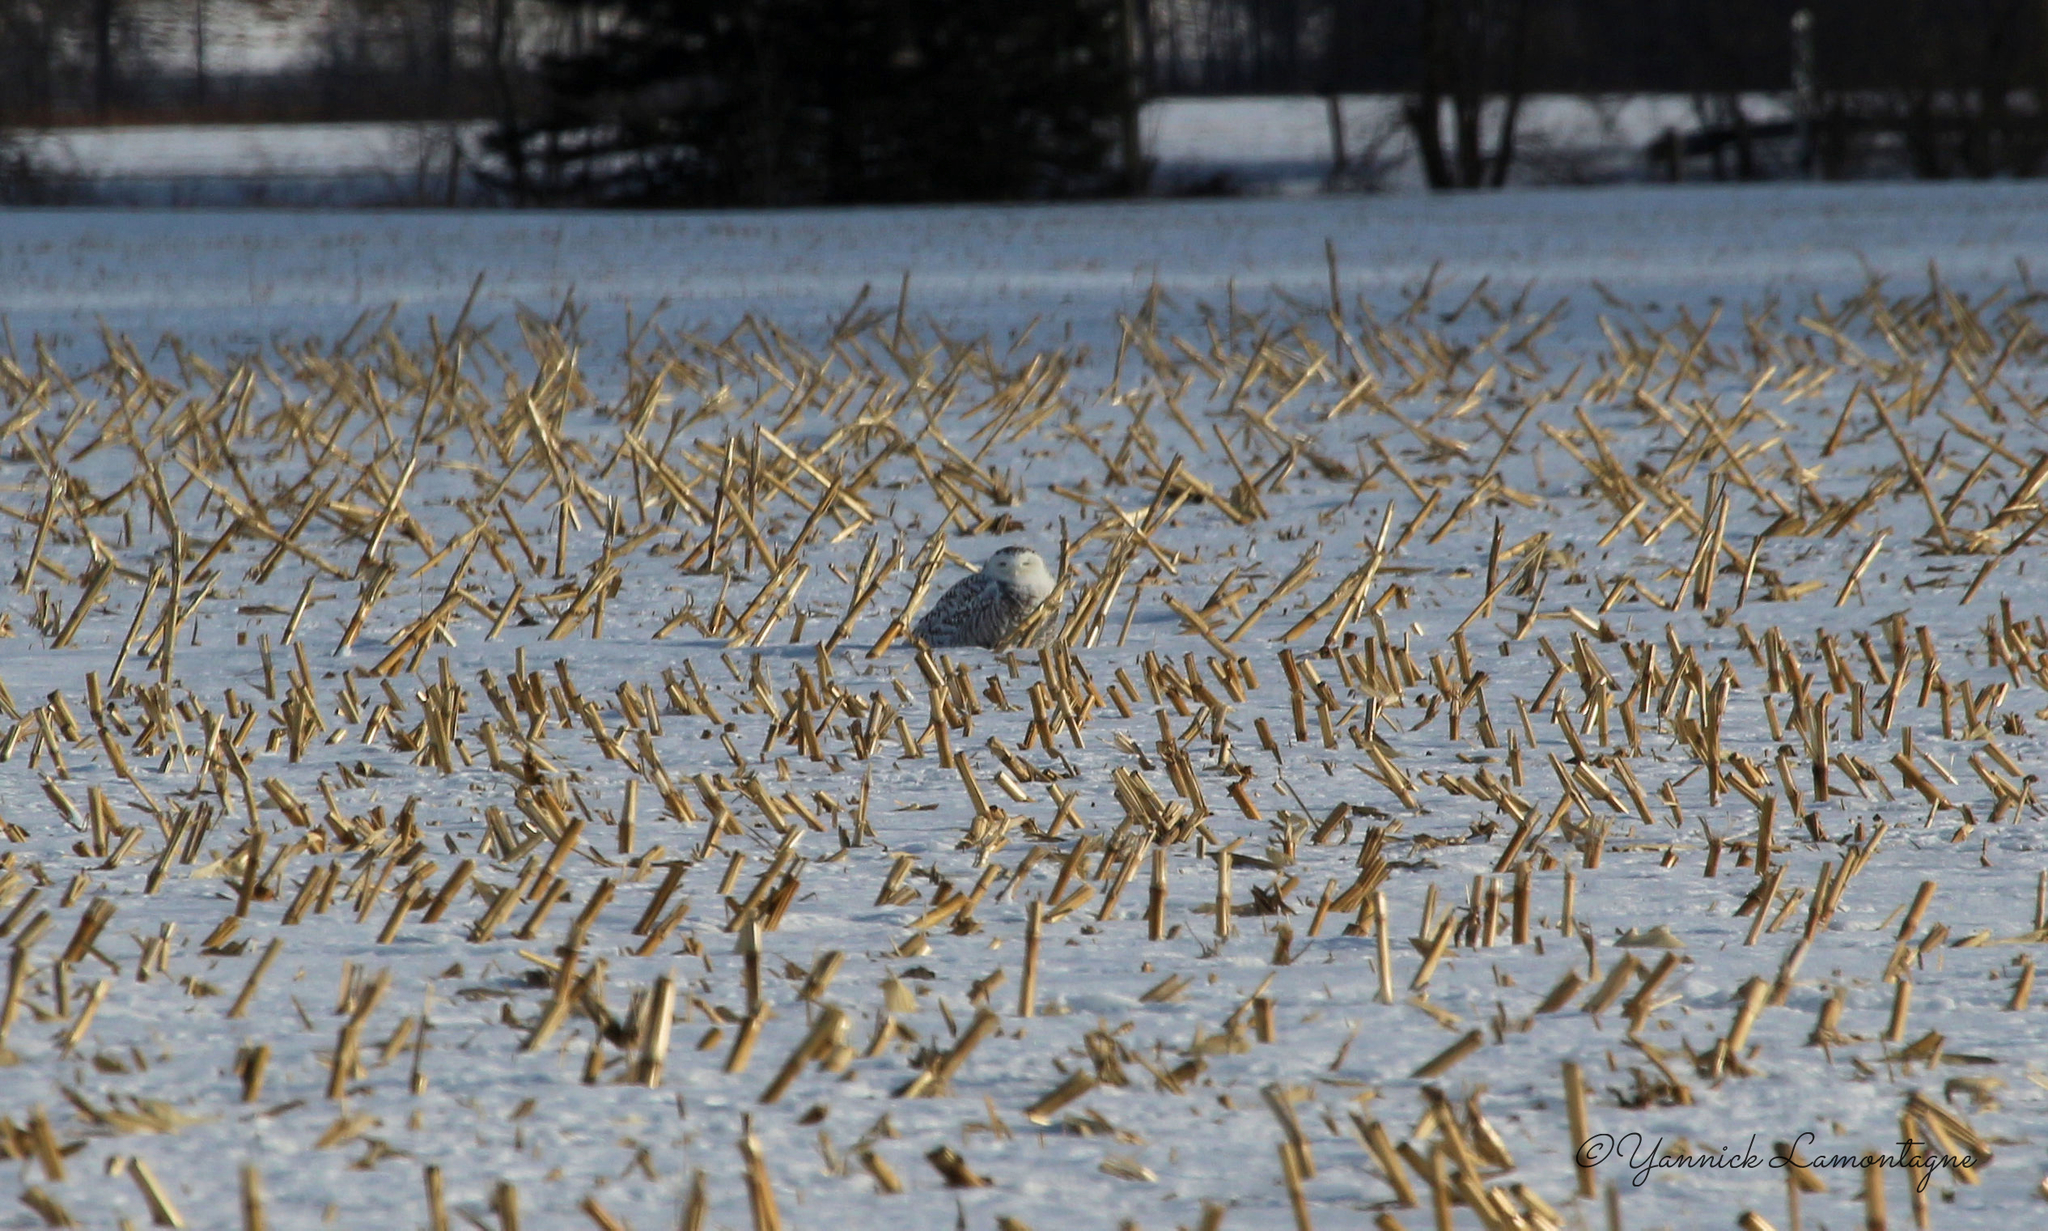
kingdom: Animalia
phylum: Chordata
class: Aves
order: Strigiformes
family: Strigidae
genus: Bubo
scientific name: Bubo scandiacus
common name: Snowy owl
